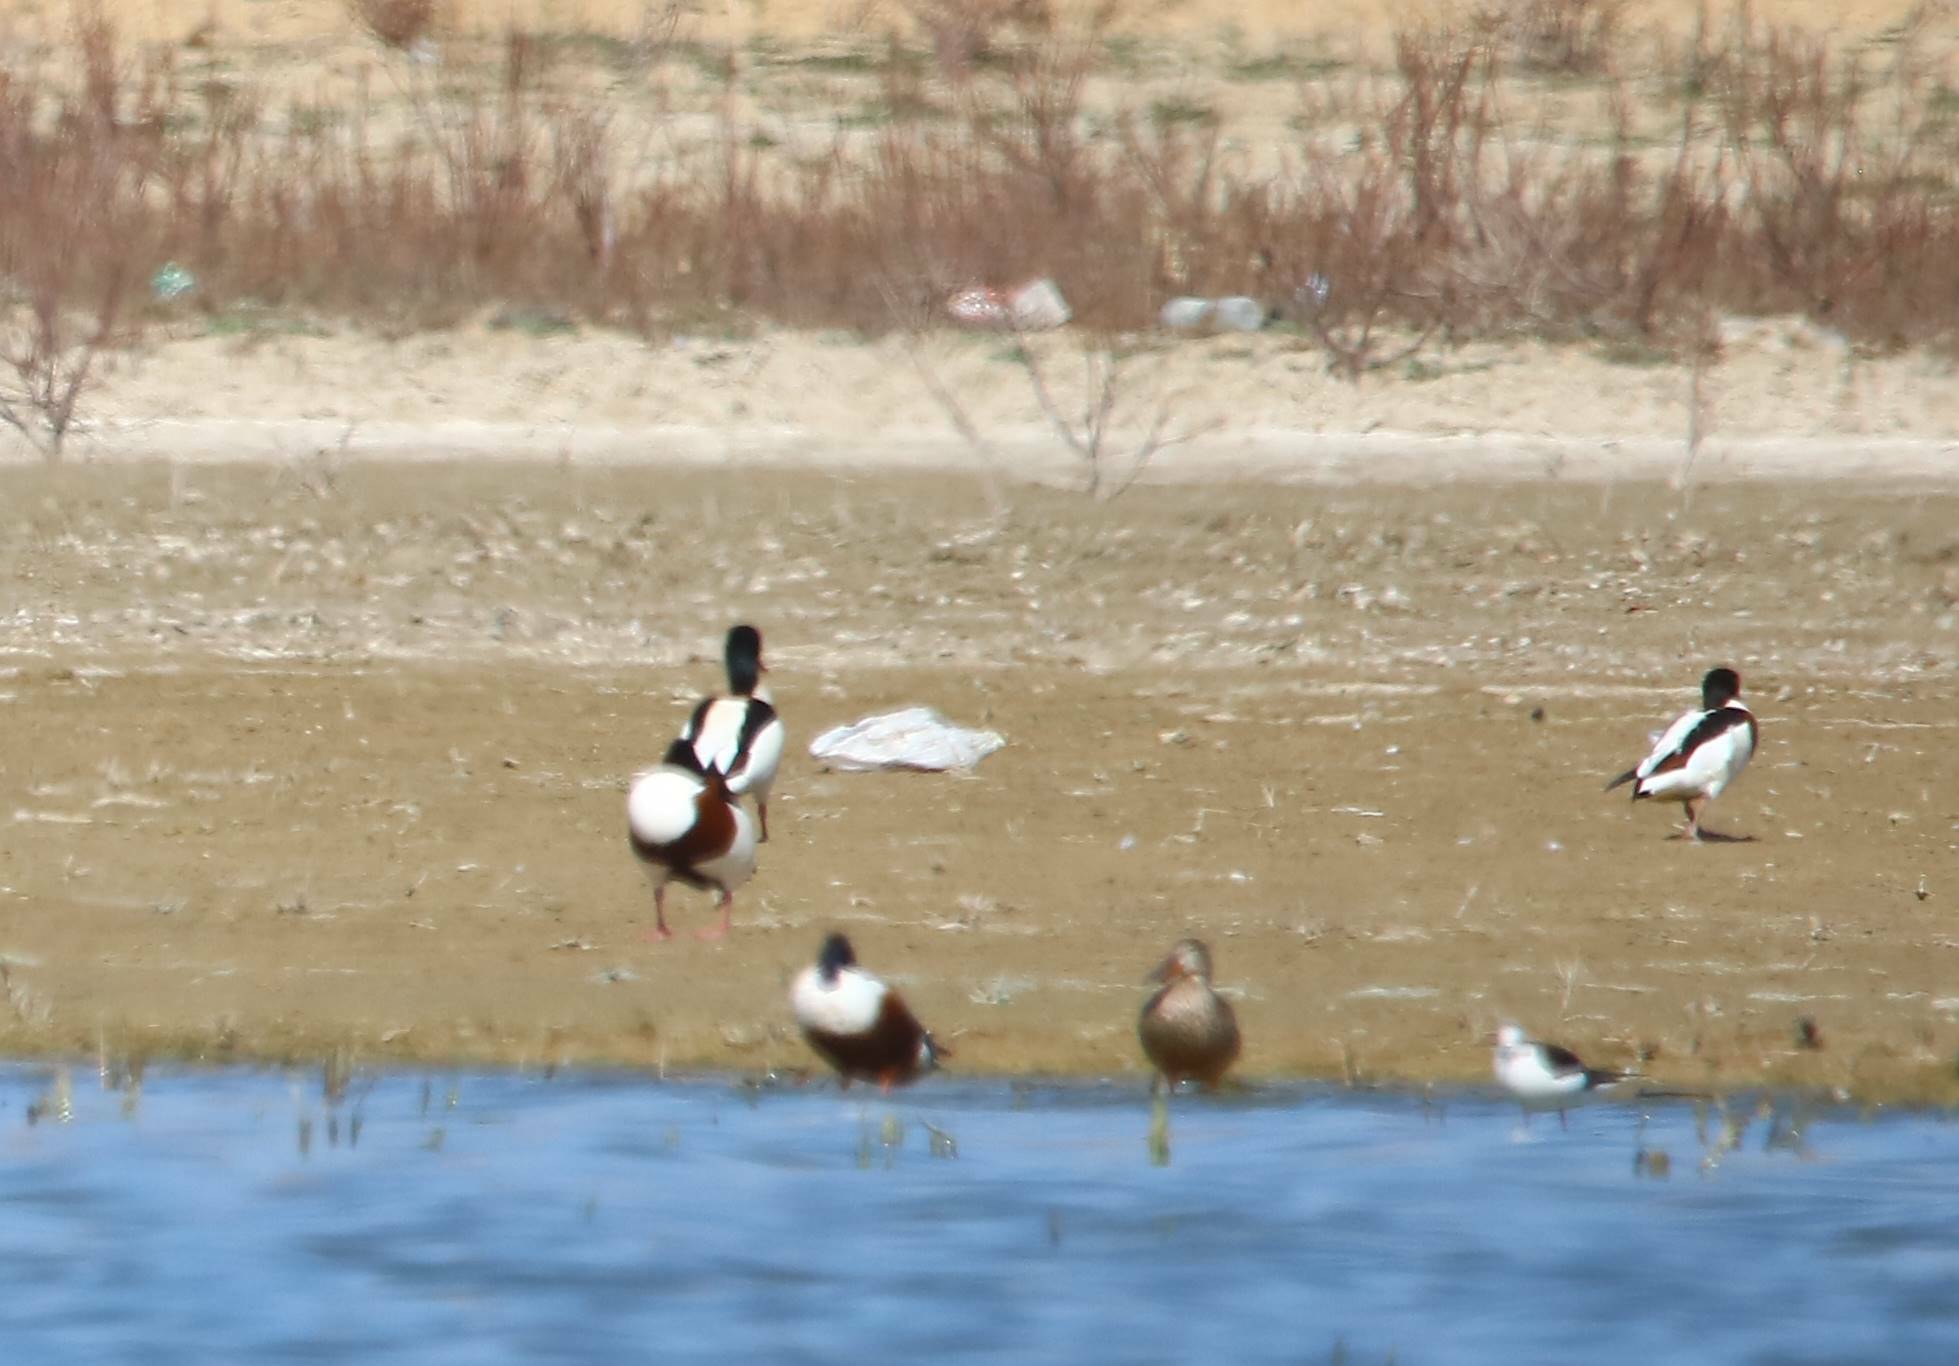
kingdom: Animalia
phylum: Chordata
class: Aves
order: Anseriformes
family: Anatidae
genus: Tadorna
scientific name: Tadorna tadorna
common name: Common shelduck
